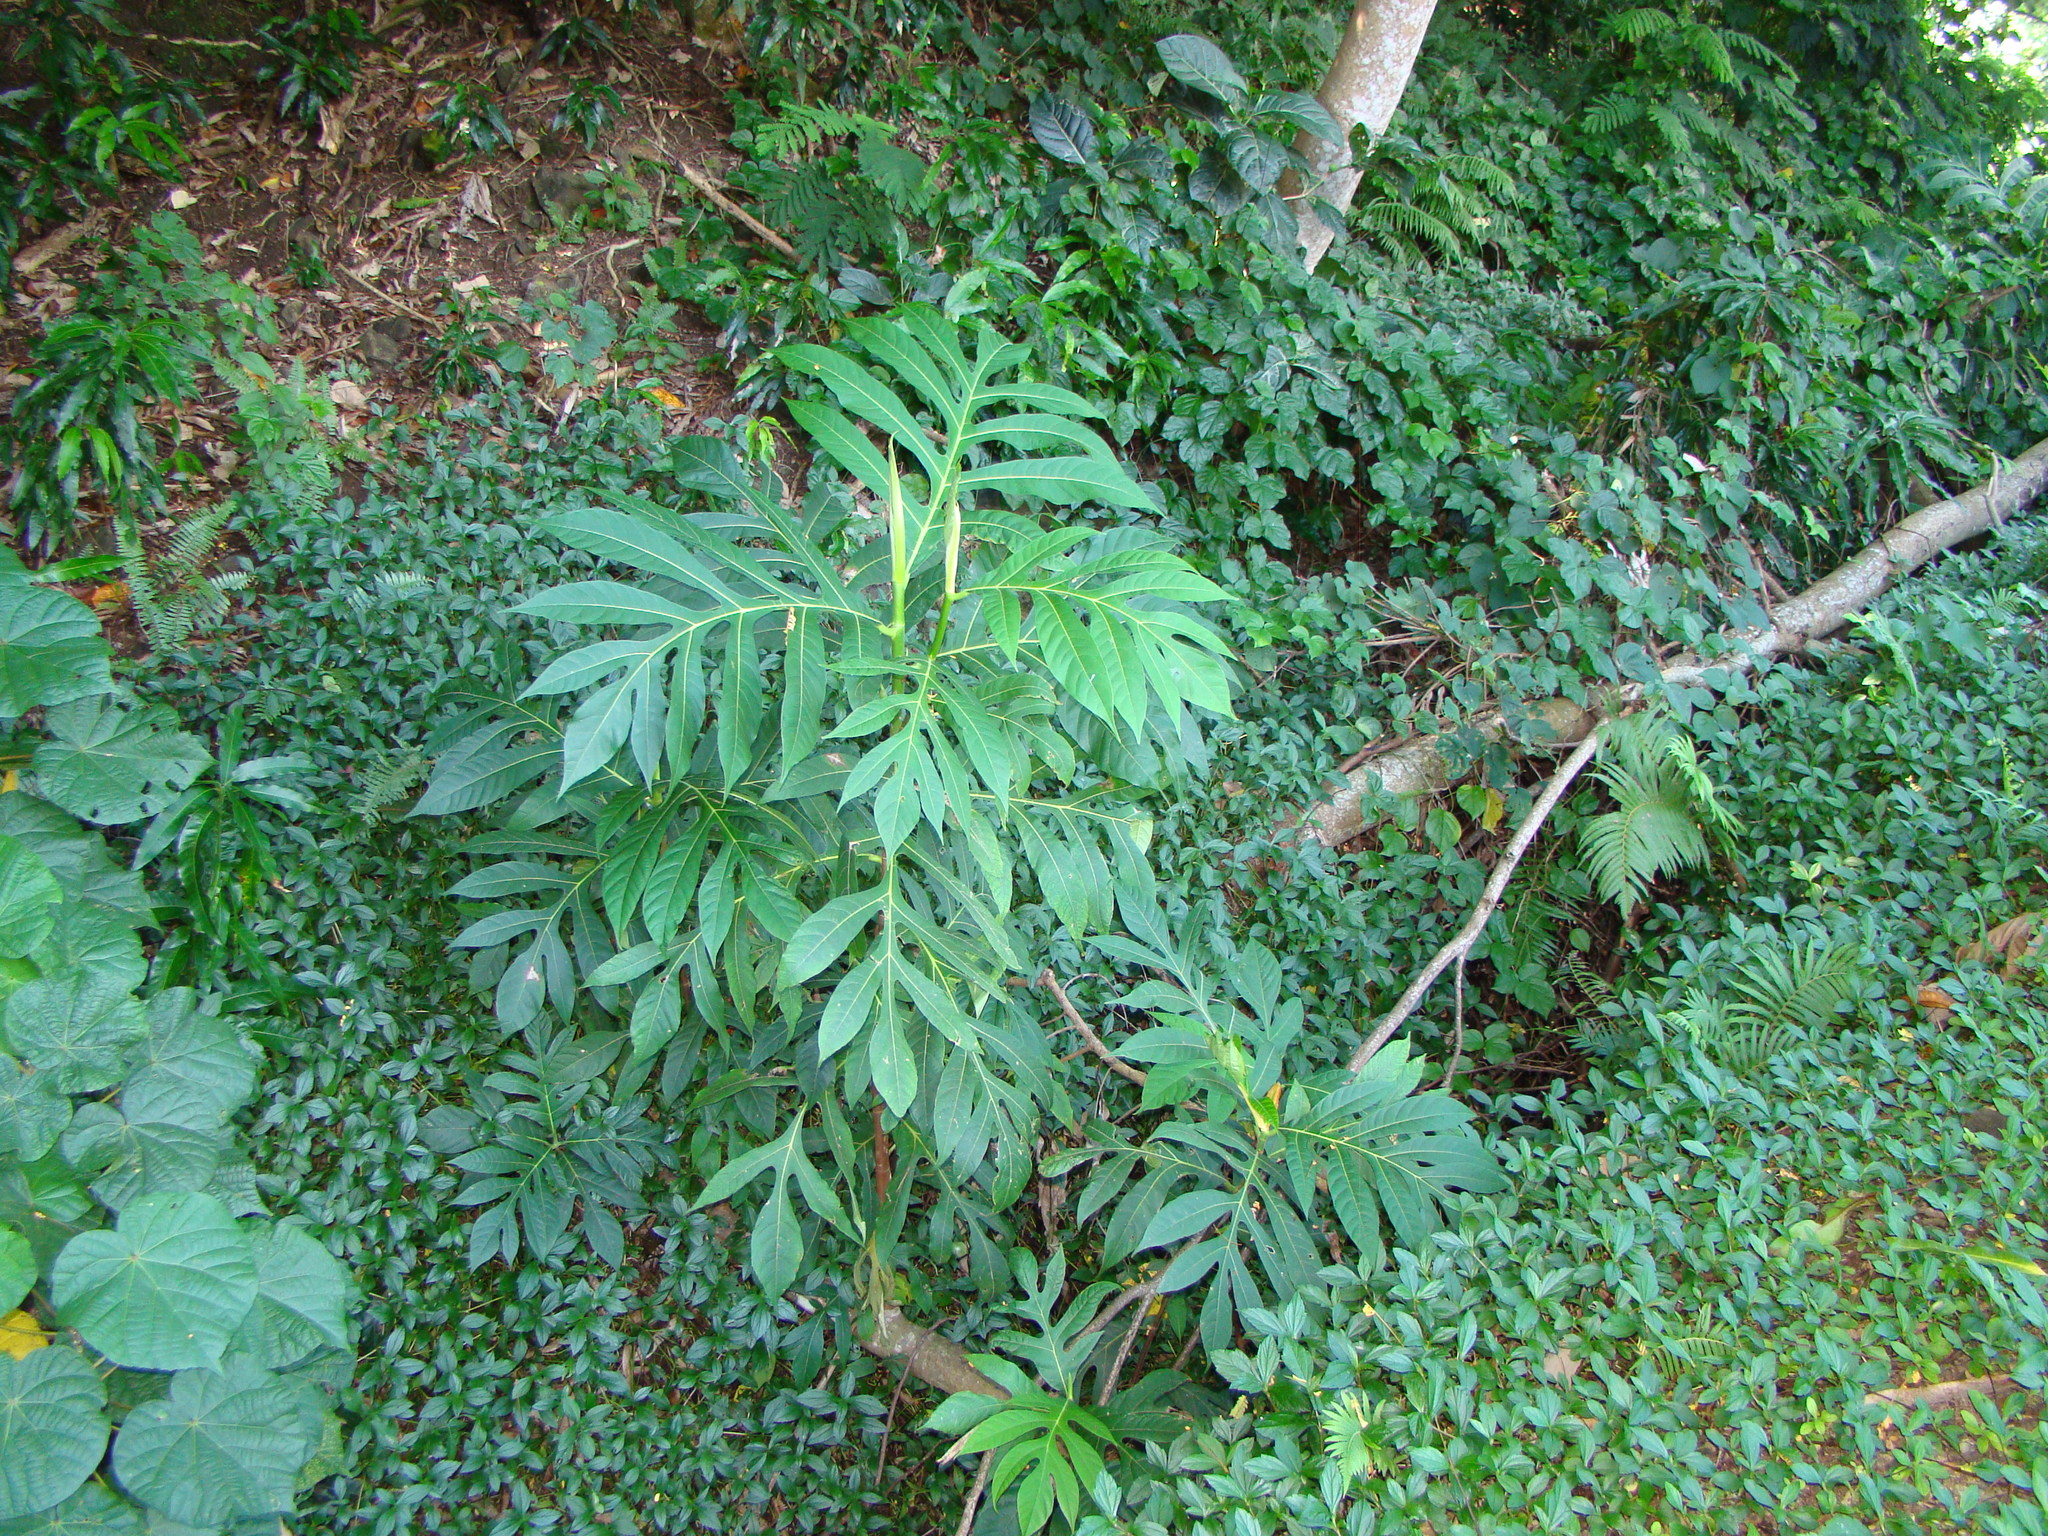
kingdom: Plantae
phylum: Tracheophyta
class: Magnoliopsida
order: Rosales
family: Moraceae
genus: Artocarpus
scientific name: Artocarpus altilis
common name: Breadfruit
